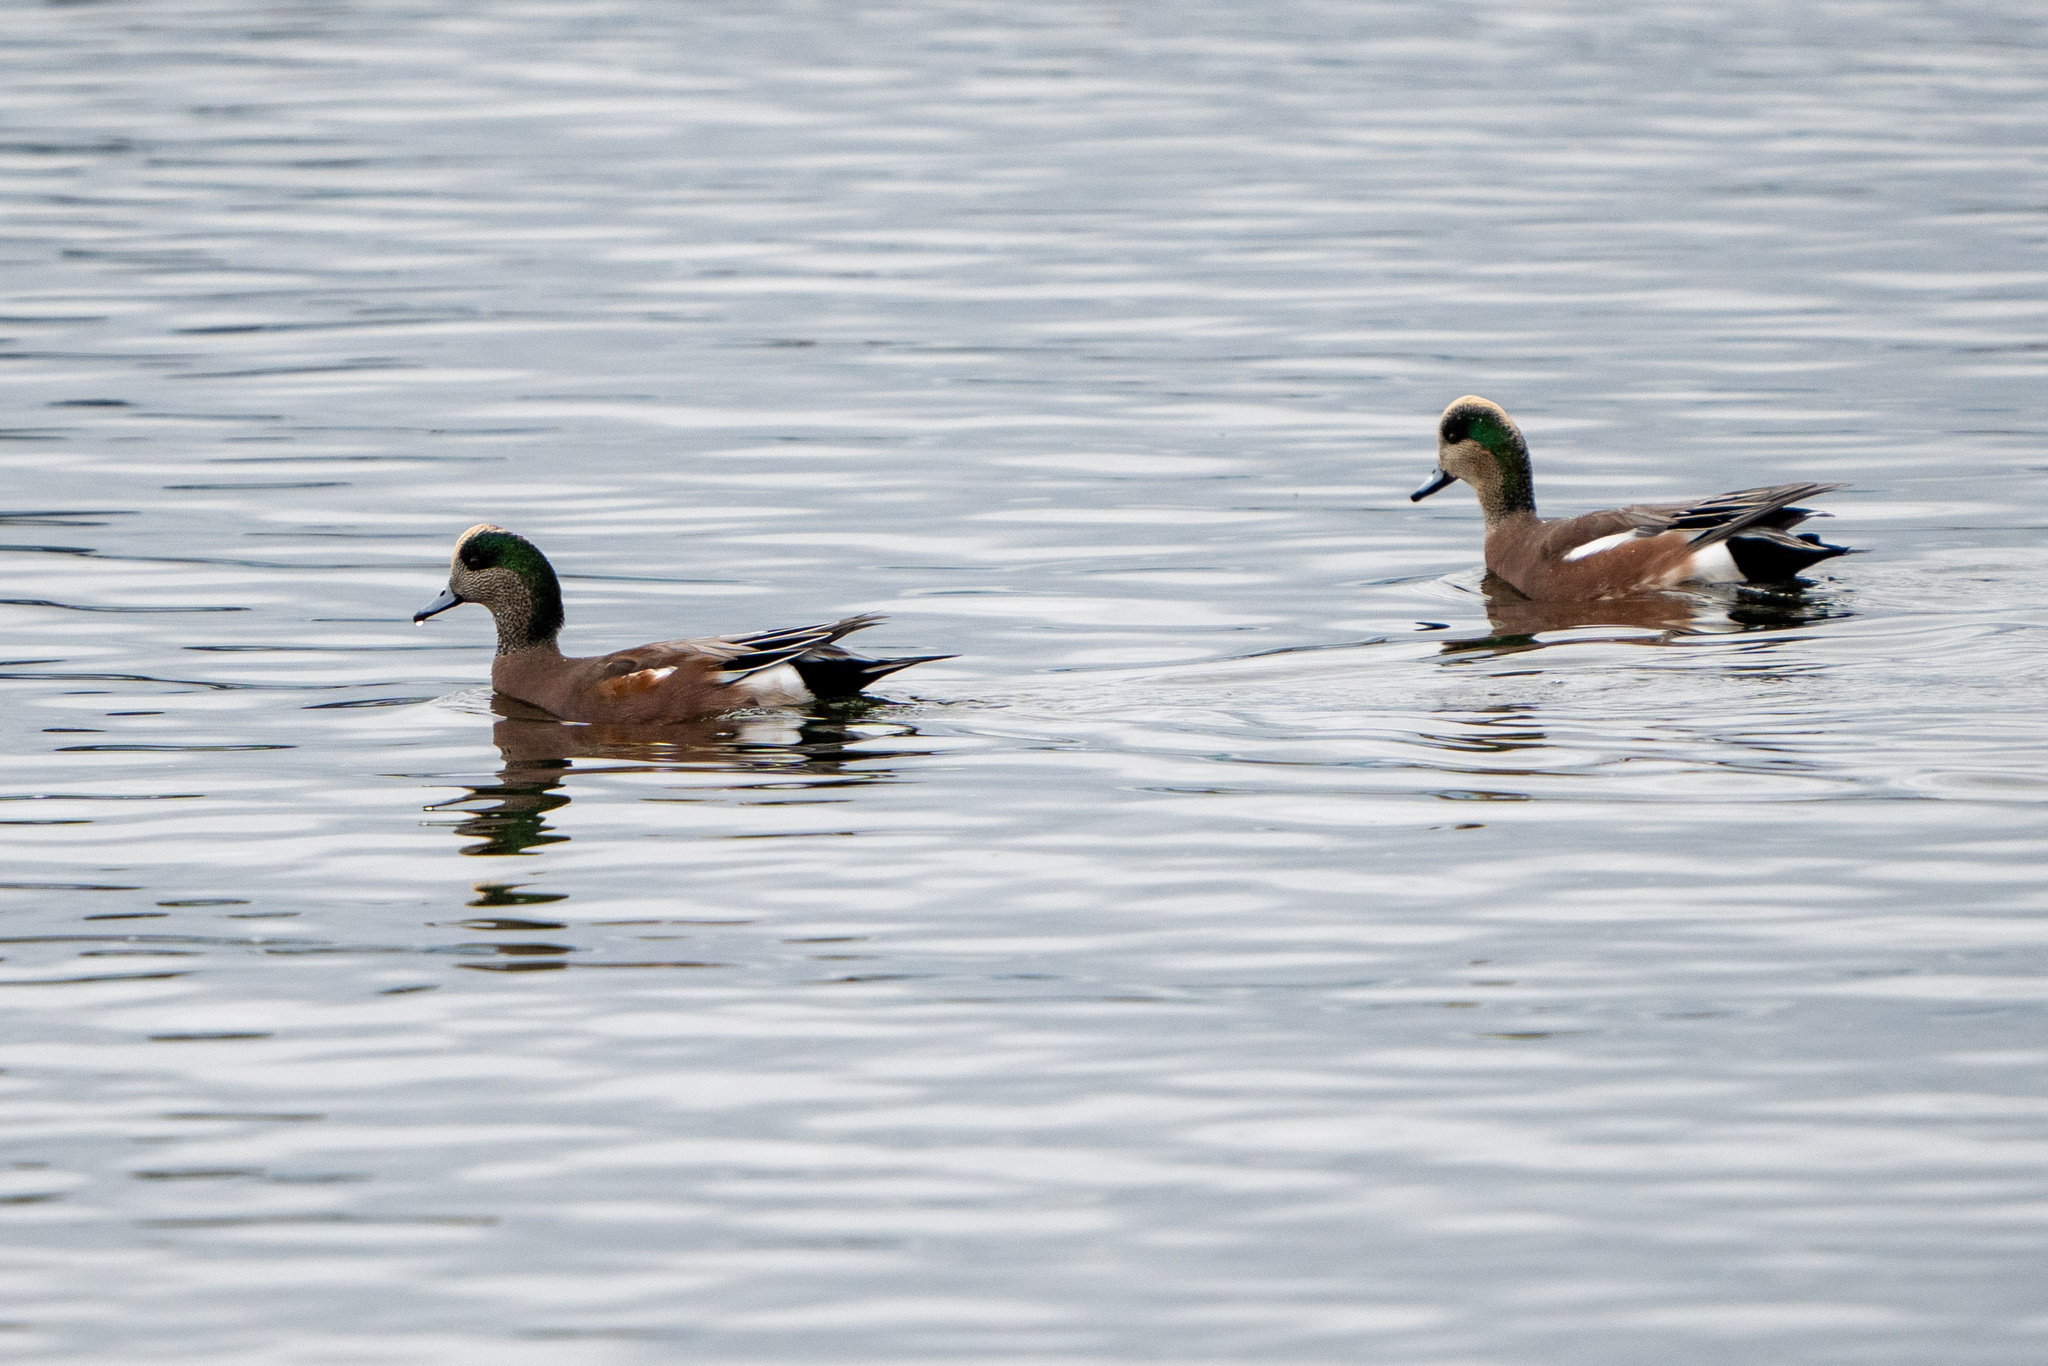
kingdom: Animalia
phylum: Chordata
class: Aves
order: Anseriformes
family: Anatidae
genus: Mareca
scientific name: Mareca americana
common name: American wigeon
